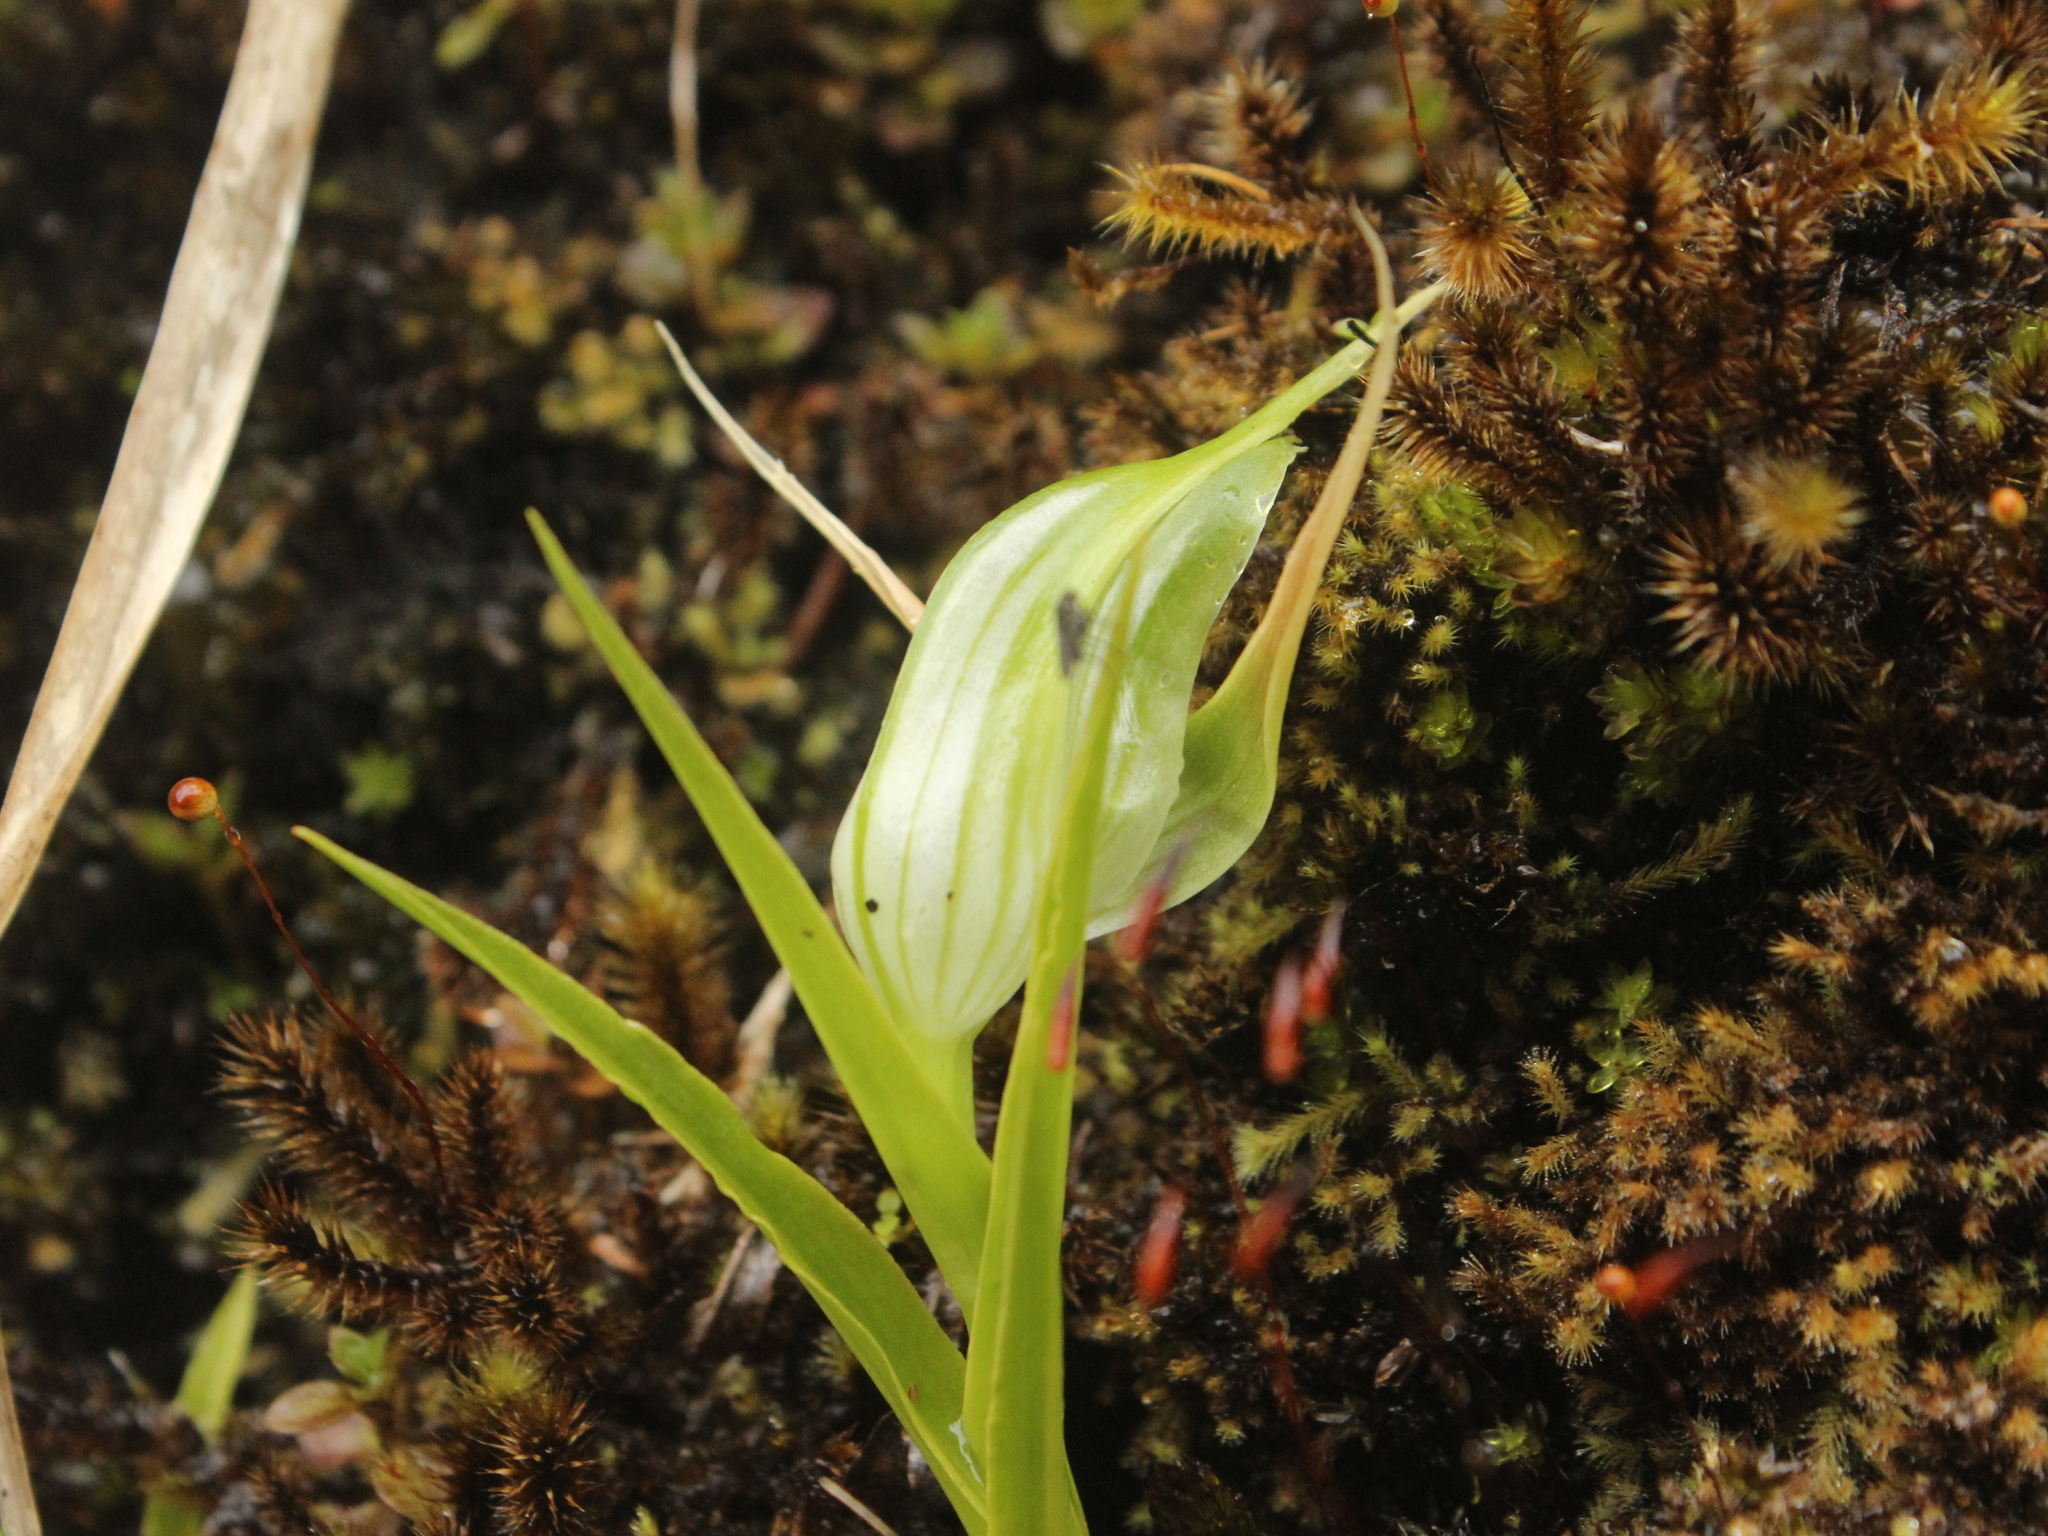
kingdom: Plantae
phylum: Tracheophyta
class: Liliopsida
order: Asparagales
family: Orchidaceae
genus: Pterostylis
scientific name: Pterostylis banksii
